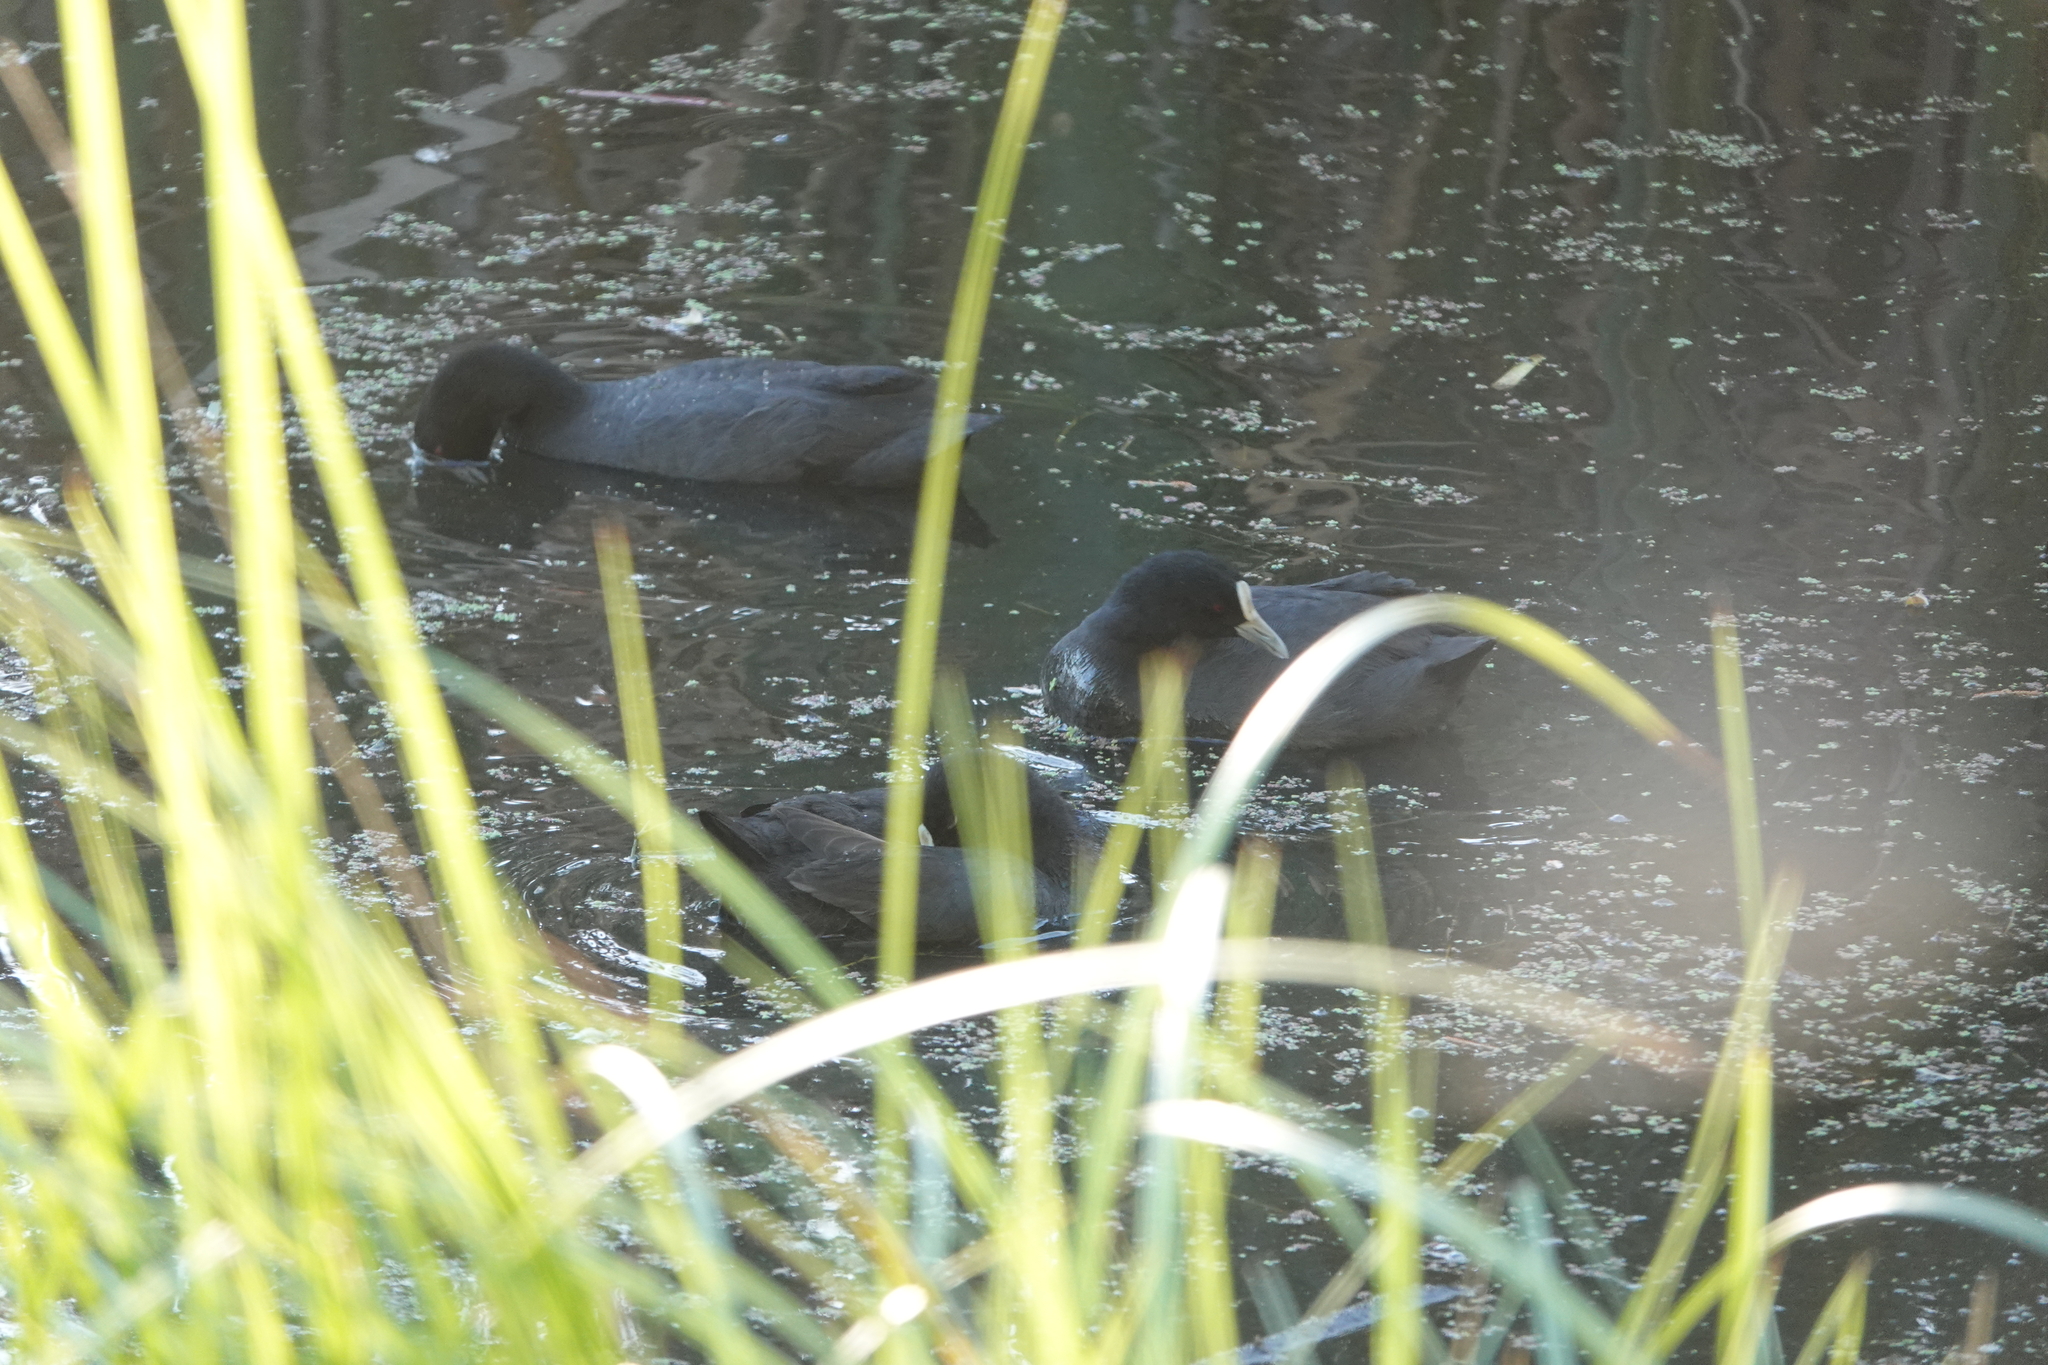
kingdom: Animalia
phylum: Chordata
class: Aves
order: Gruiformes
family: Rallidae
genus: Fulica
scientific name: Fulica atra
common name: Eurasian coot
